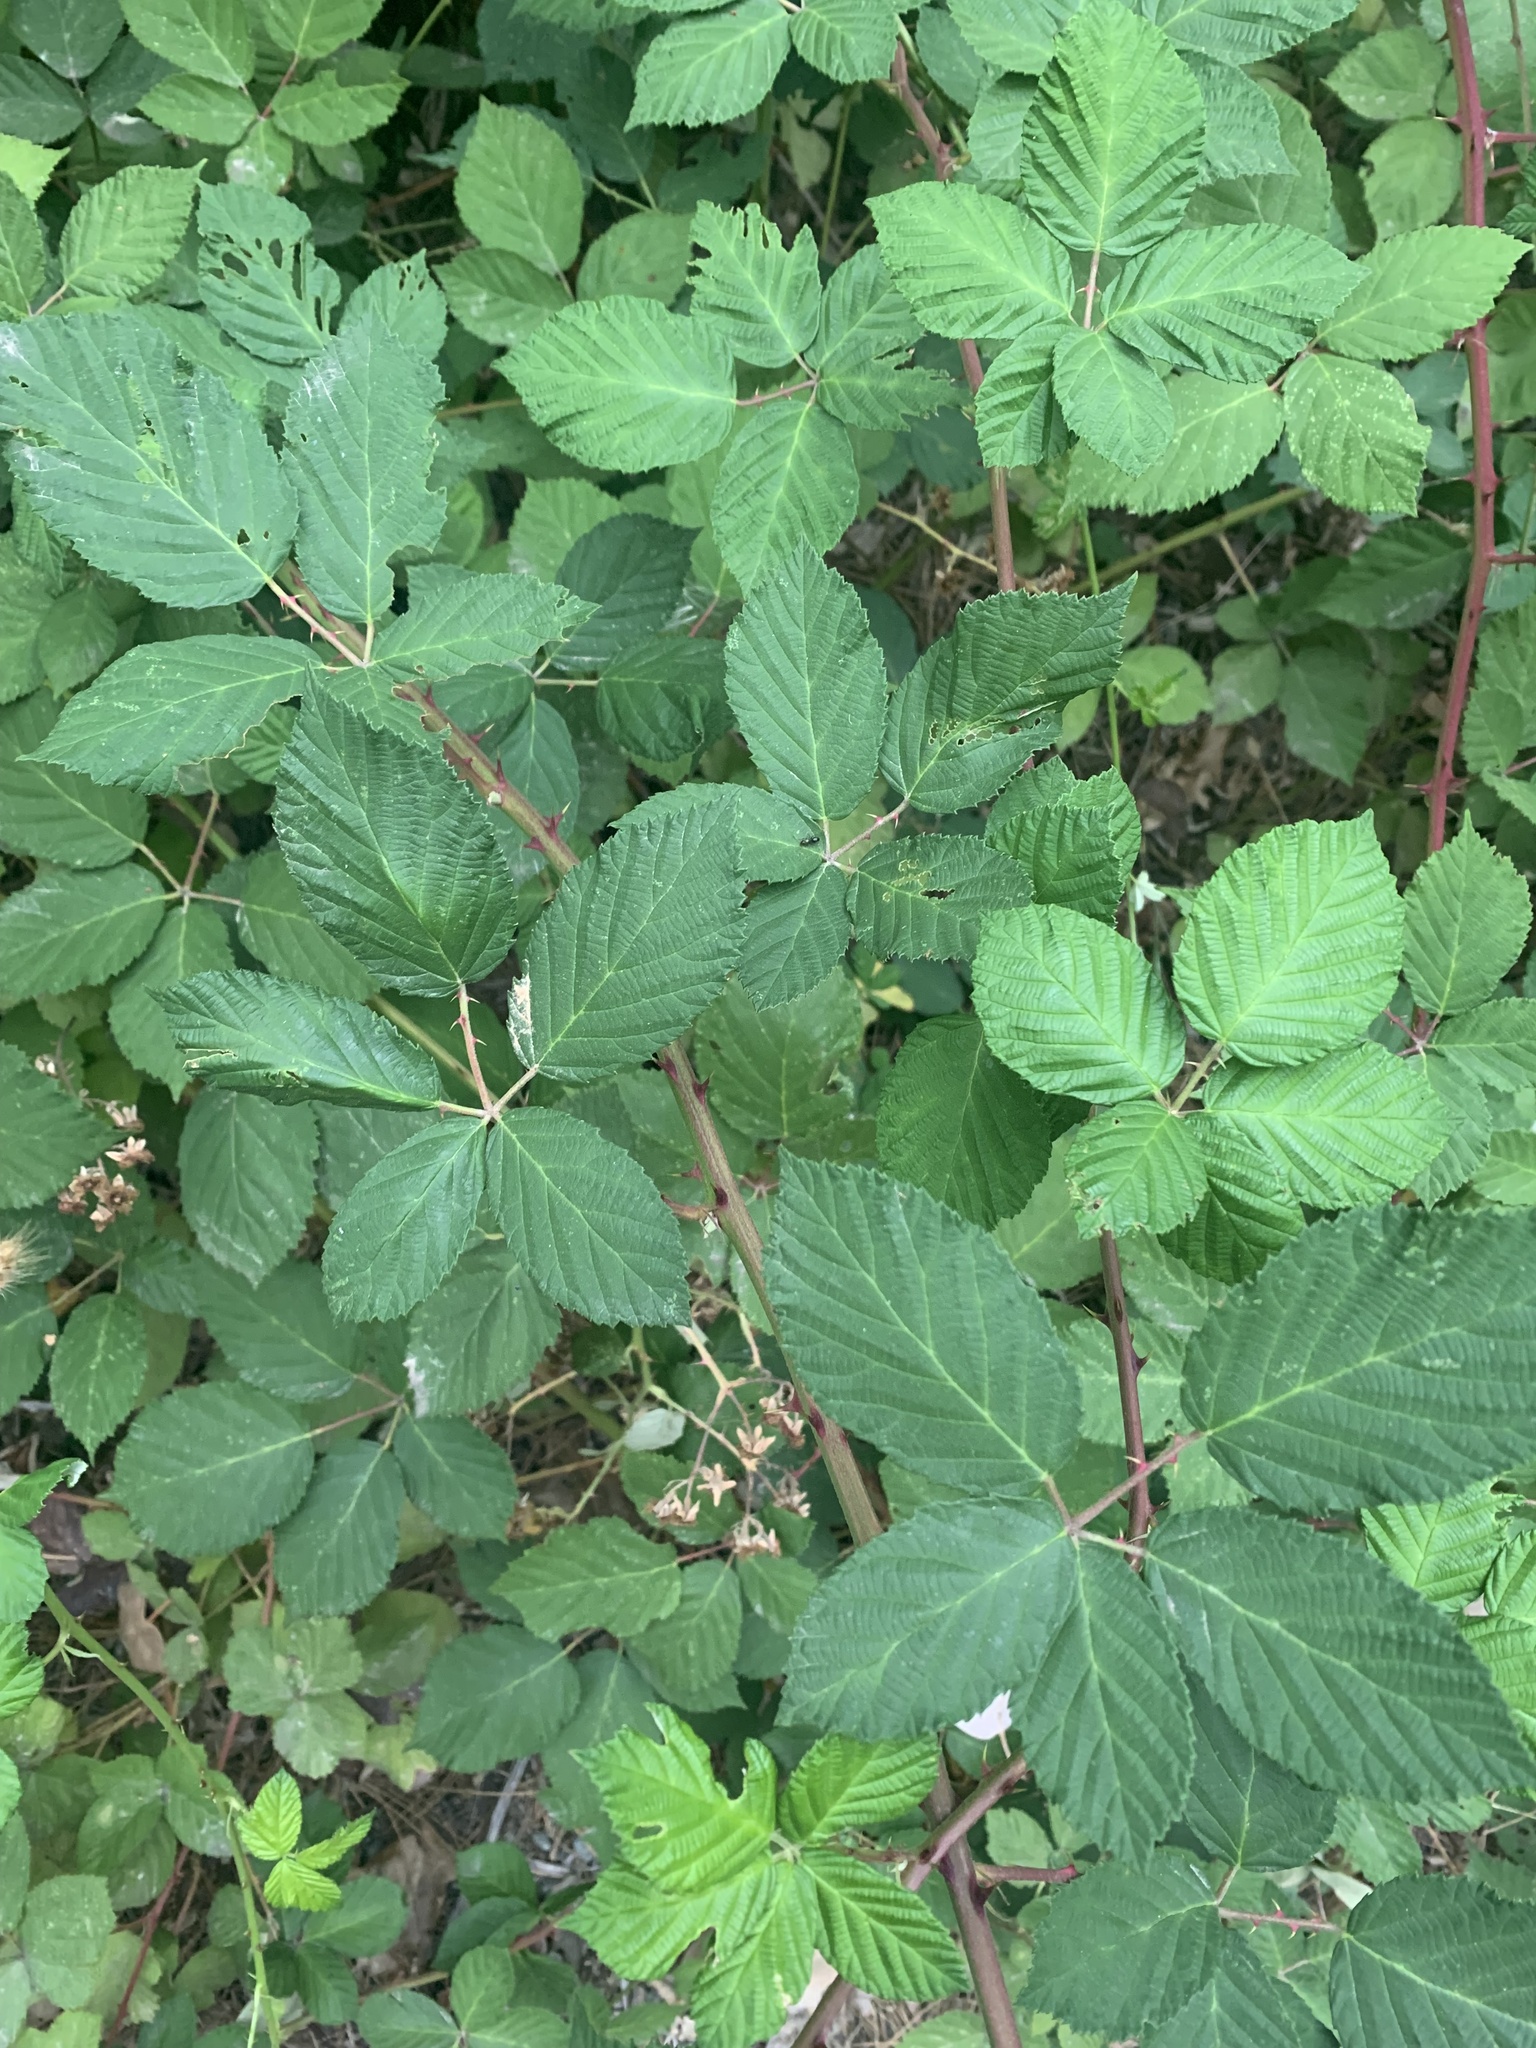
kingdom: Plantae
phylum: Tracheophyta
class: Magnoliopsida
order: Rosales
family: Rosaceae
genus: Rubus
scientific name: Rubus armeniacus
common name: Himalayan blackberry
